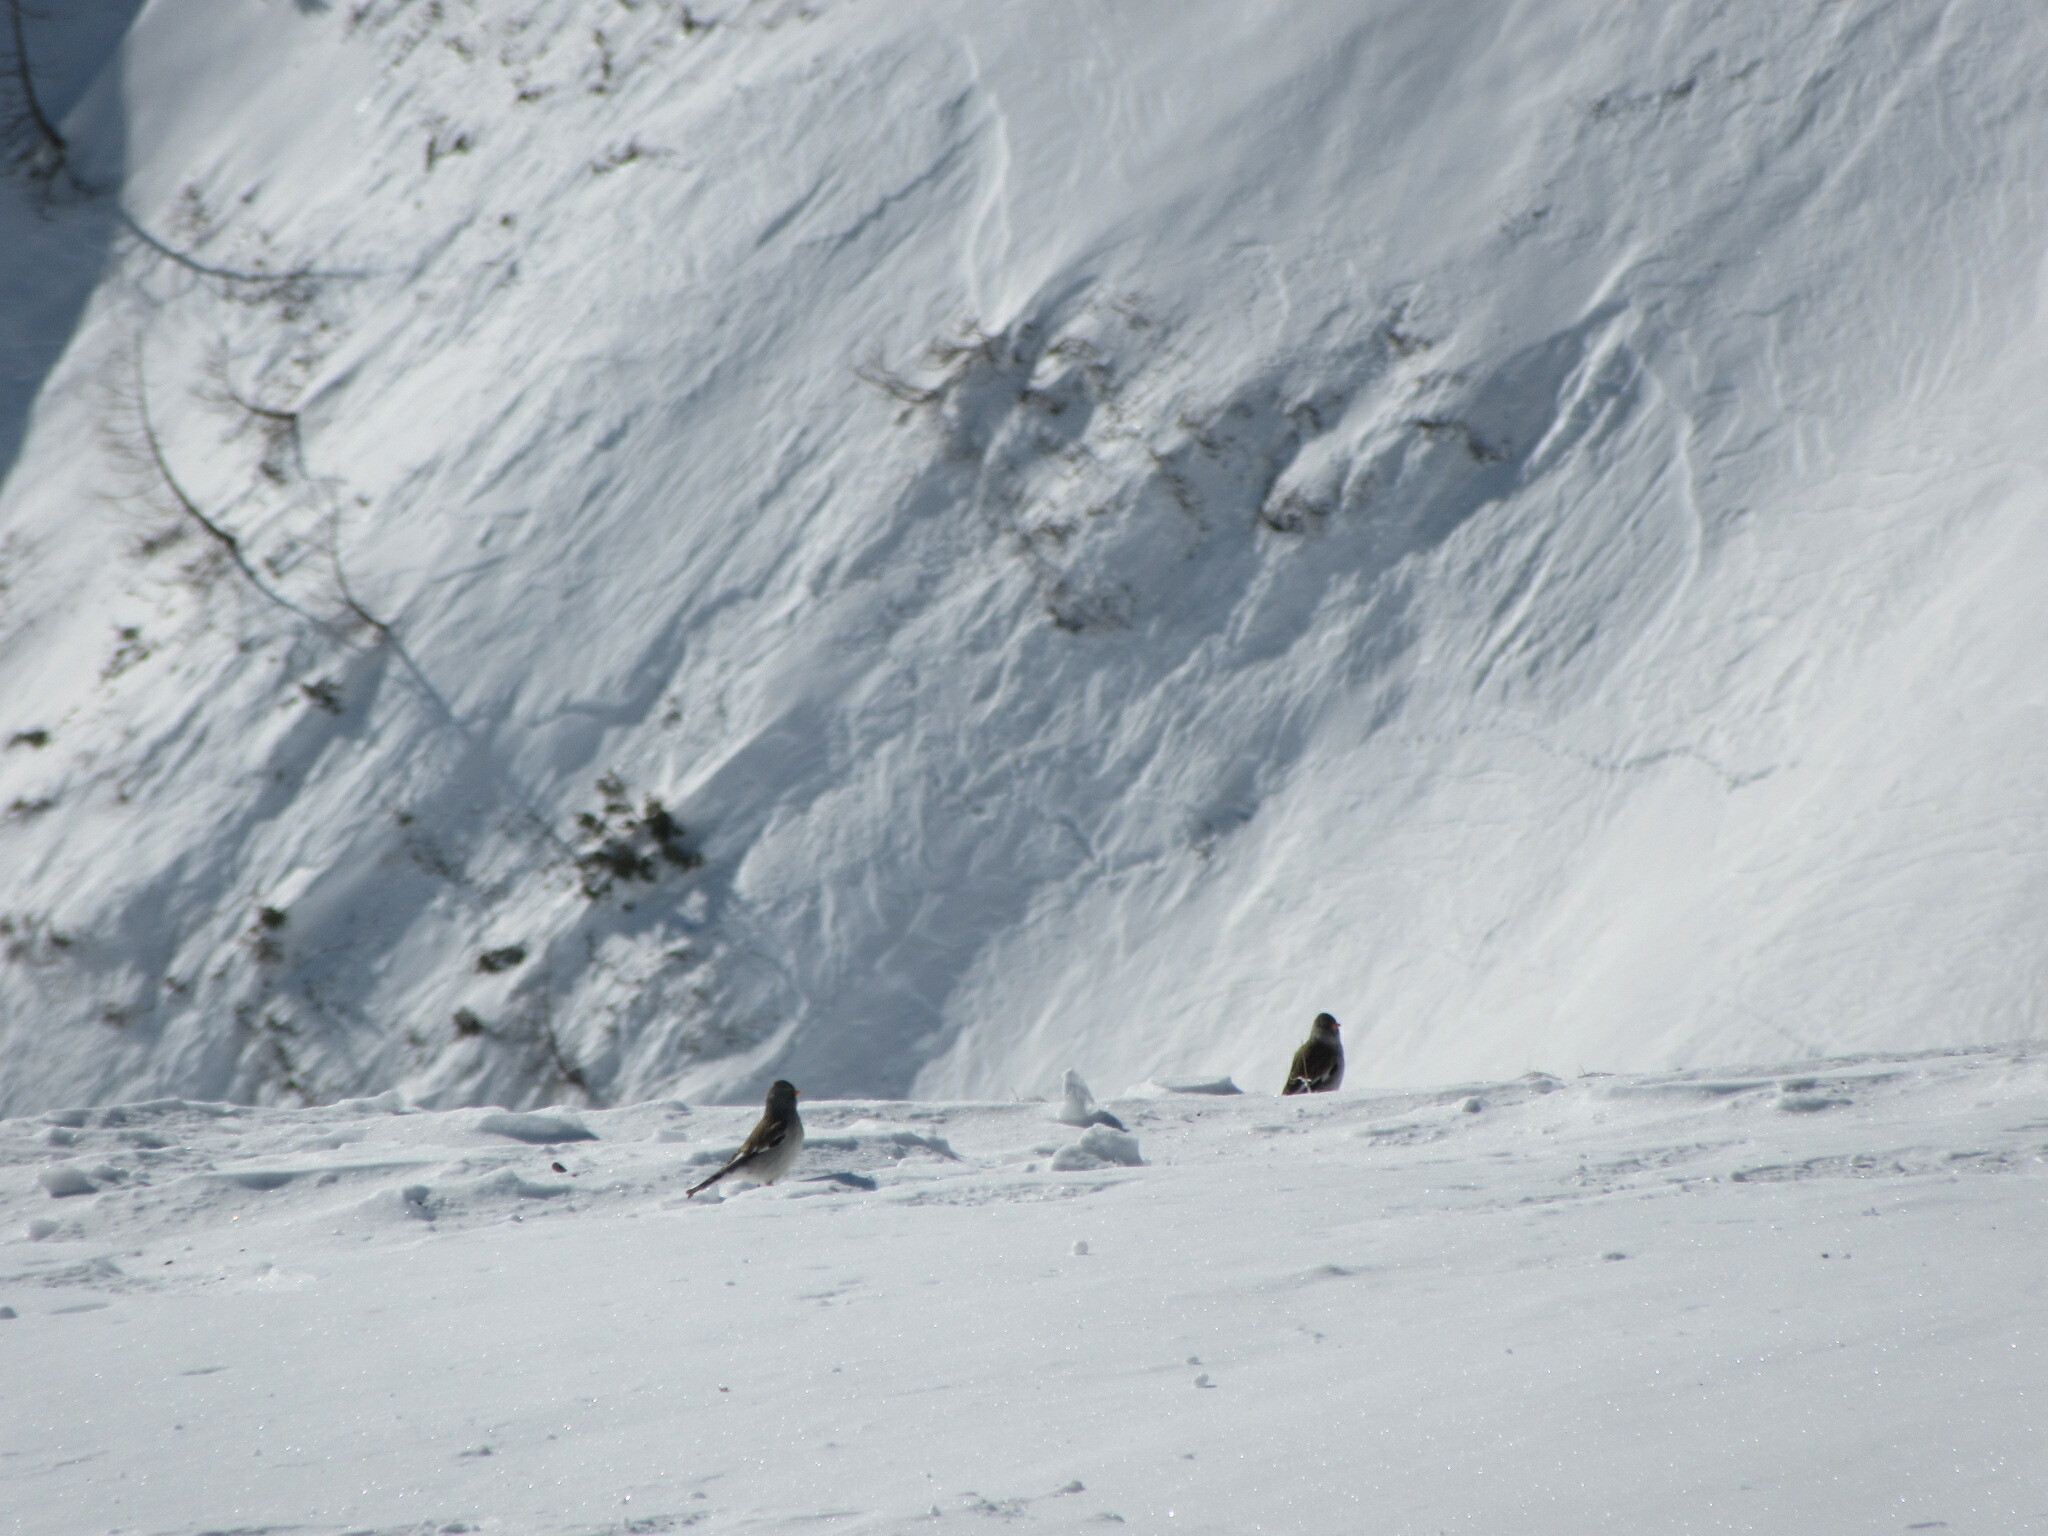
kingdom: Animalia
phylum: Chordata
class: Aves
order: Passeriformes
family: Passeridae
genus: Montifringilla
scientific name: Montifringilla nivalis
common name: White-winged snowfinch
